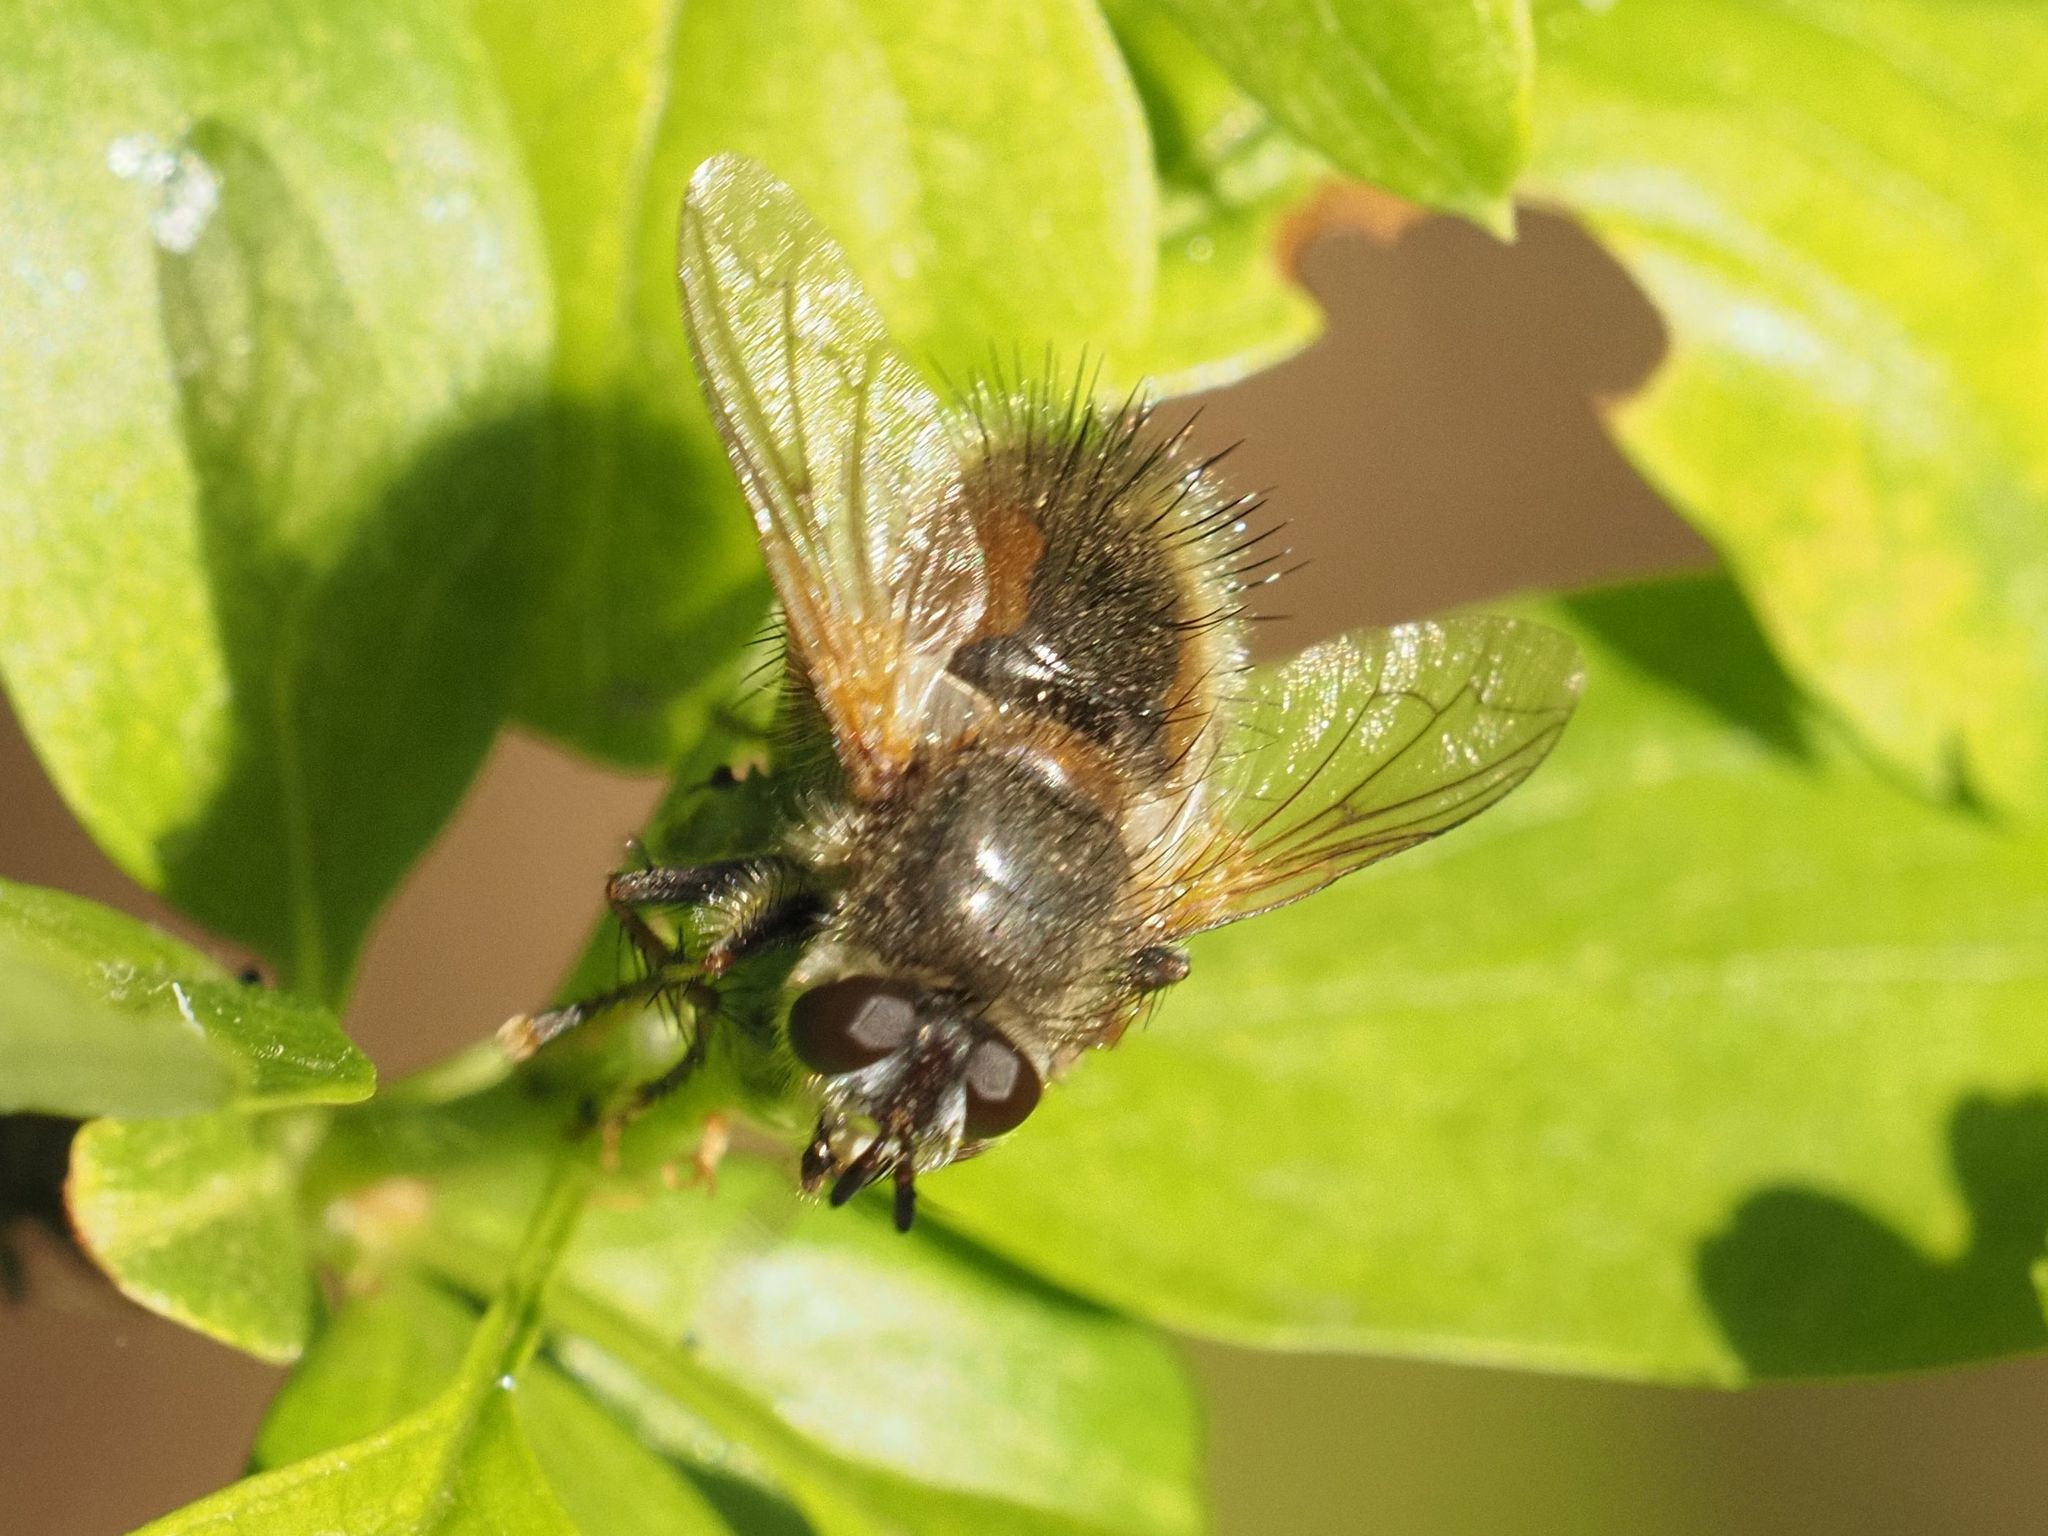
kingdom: Animalia
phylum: Arthropoda
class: Insecta
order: Diptera
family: Tachinidae
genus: Tachina
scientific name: Tachina lurida
